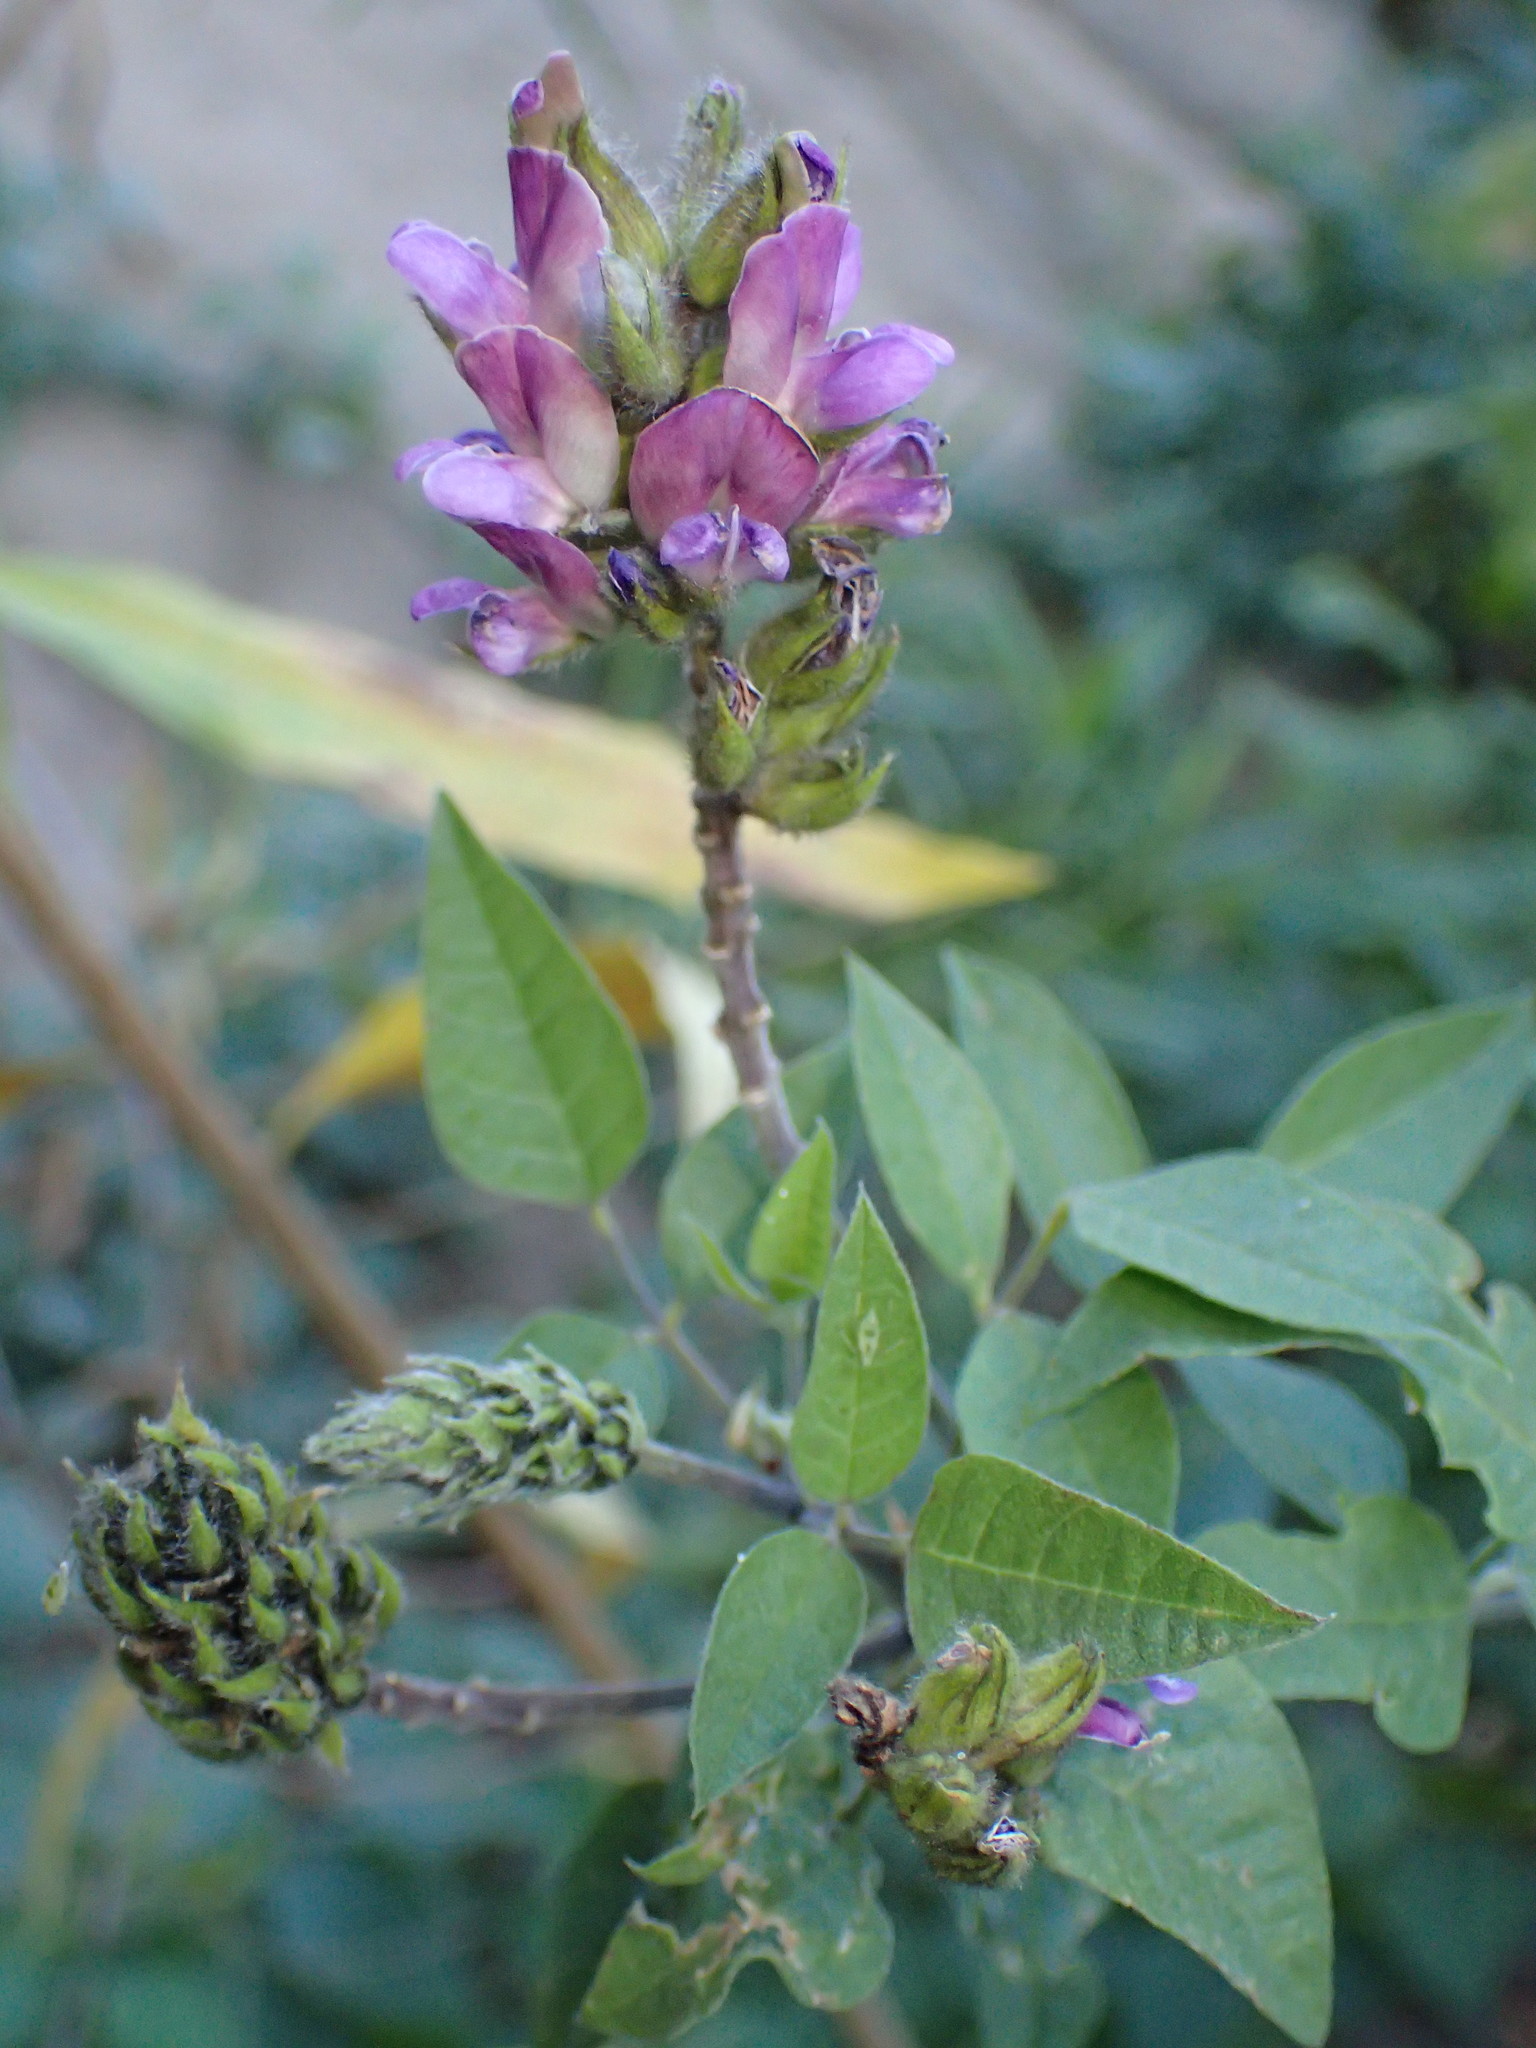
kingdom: Plantae
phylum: Tracheophyta
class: Magnoliopsida
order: Fabales
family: Fabaceae
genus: Hoita
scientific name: Hoita macrostachya
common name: Leatherroot
